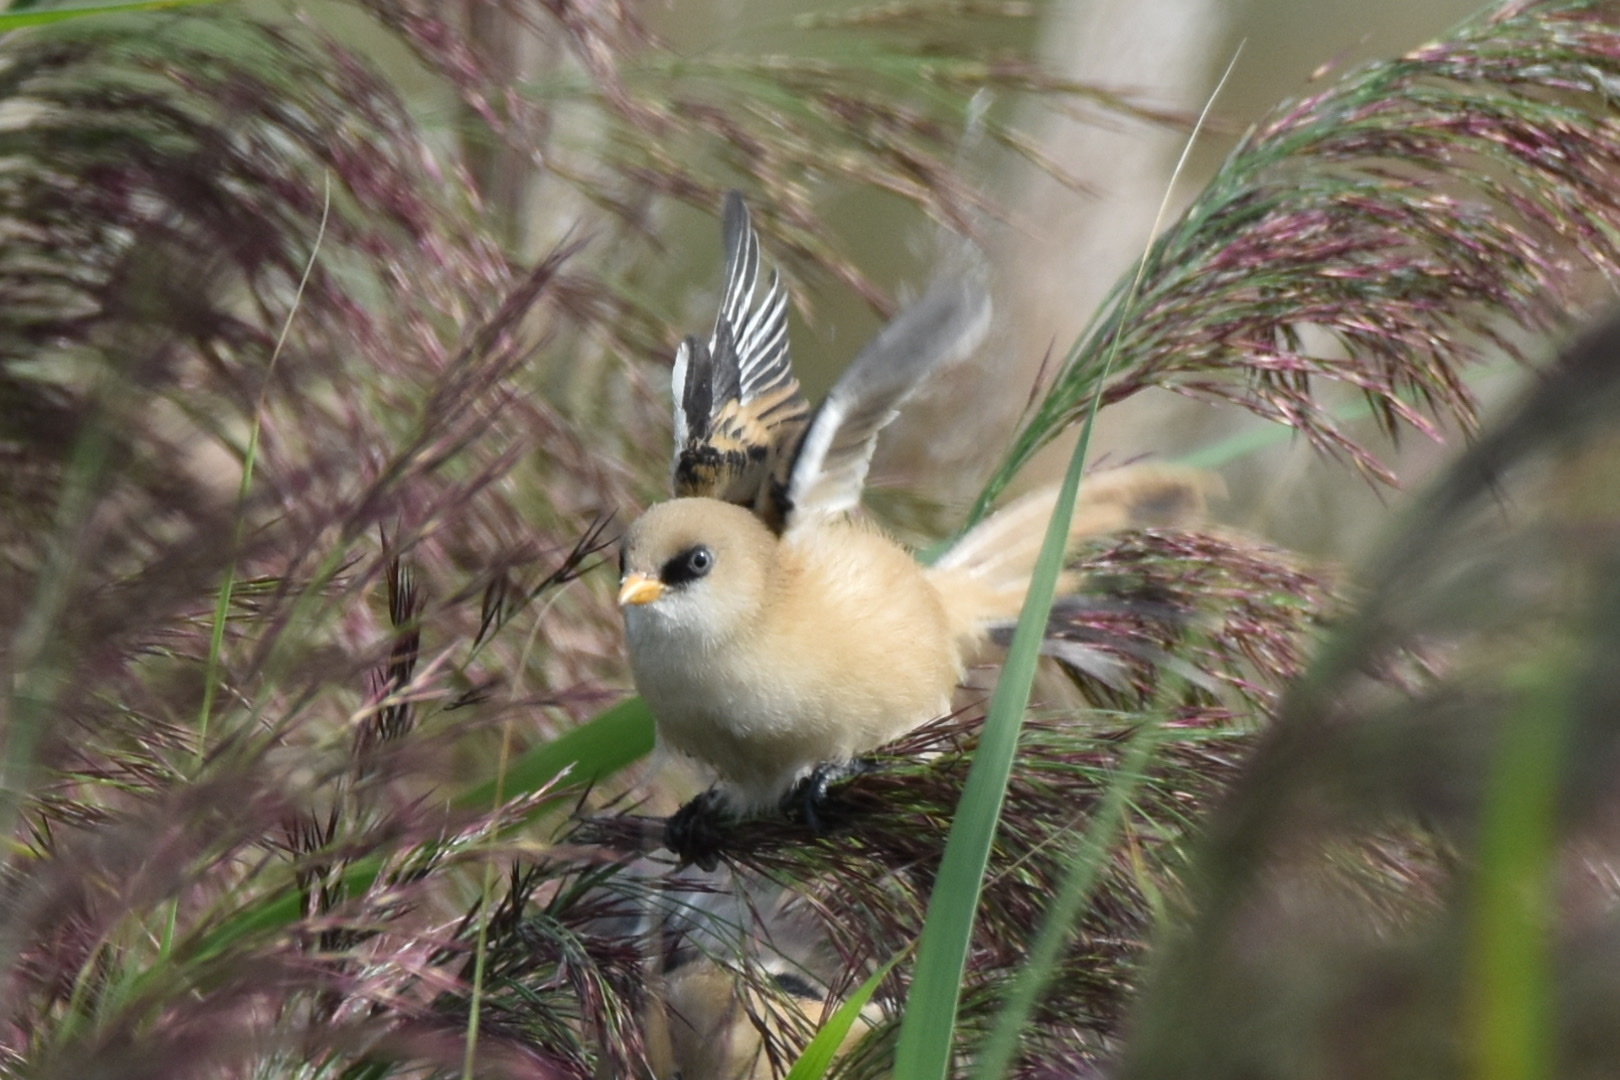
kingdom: Animalia
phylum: Chordata
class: Aves
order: Passeriformes
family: Panuridae
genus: Panurus
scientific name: Panurus biarmicus
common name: Bearded reedling
